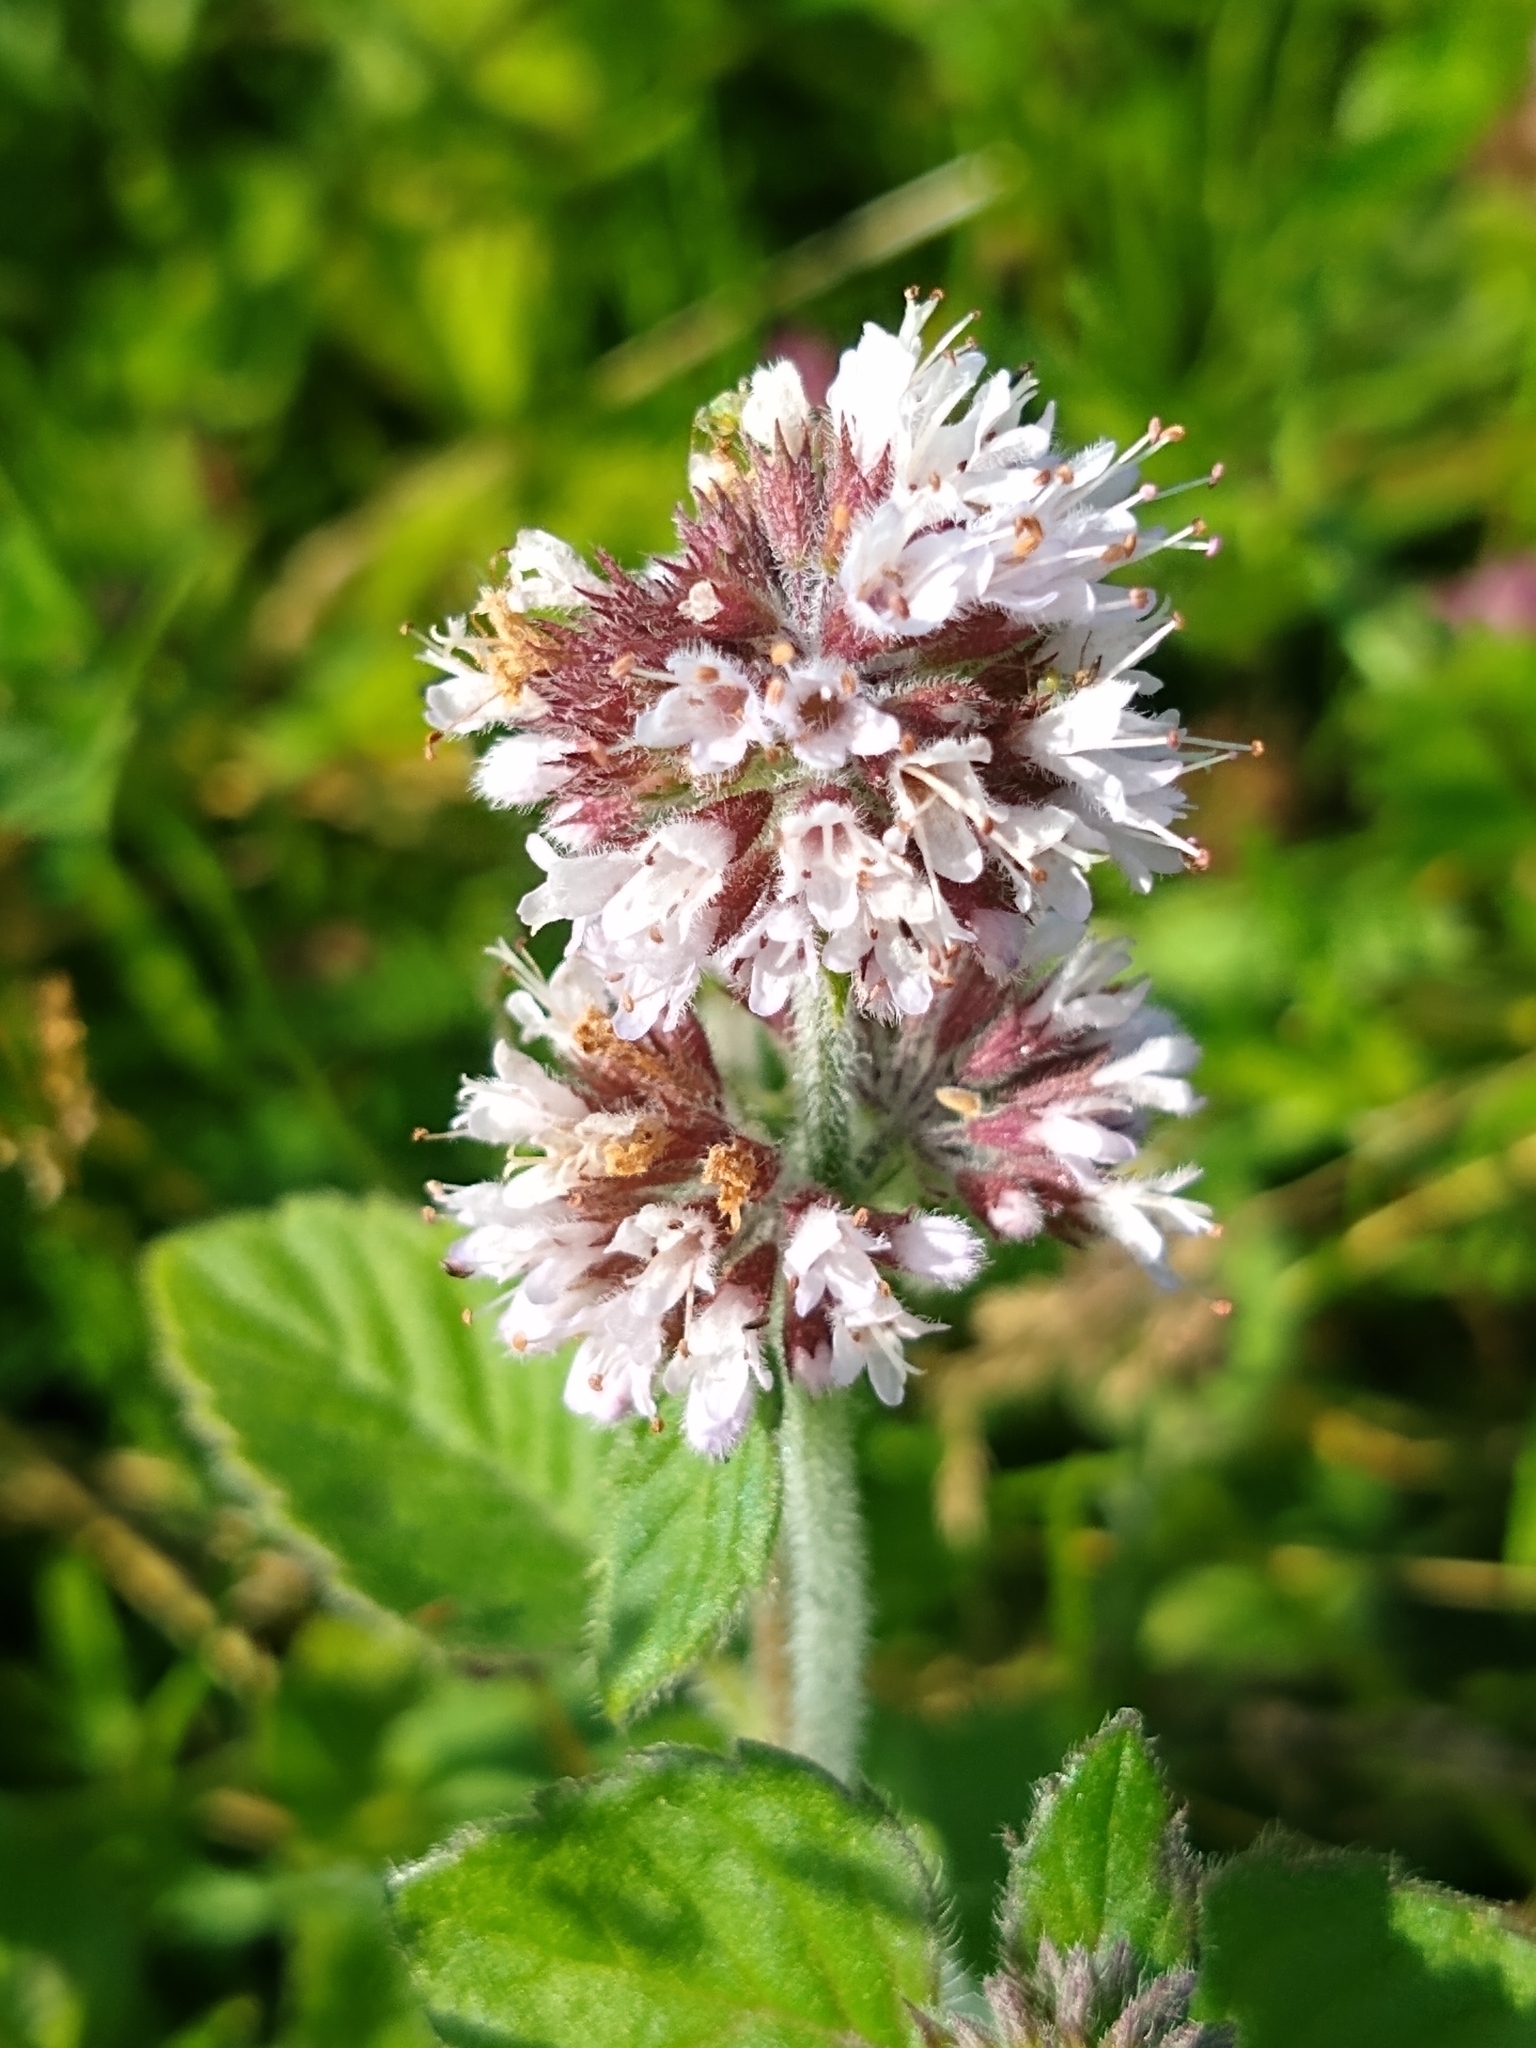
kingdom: Plantae
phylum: Tracheophyta
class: Magnoliopsida
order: Lamiales
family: Lamiaceae
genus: Mentha
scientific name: Mentha aquatica
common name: Water mint
